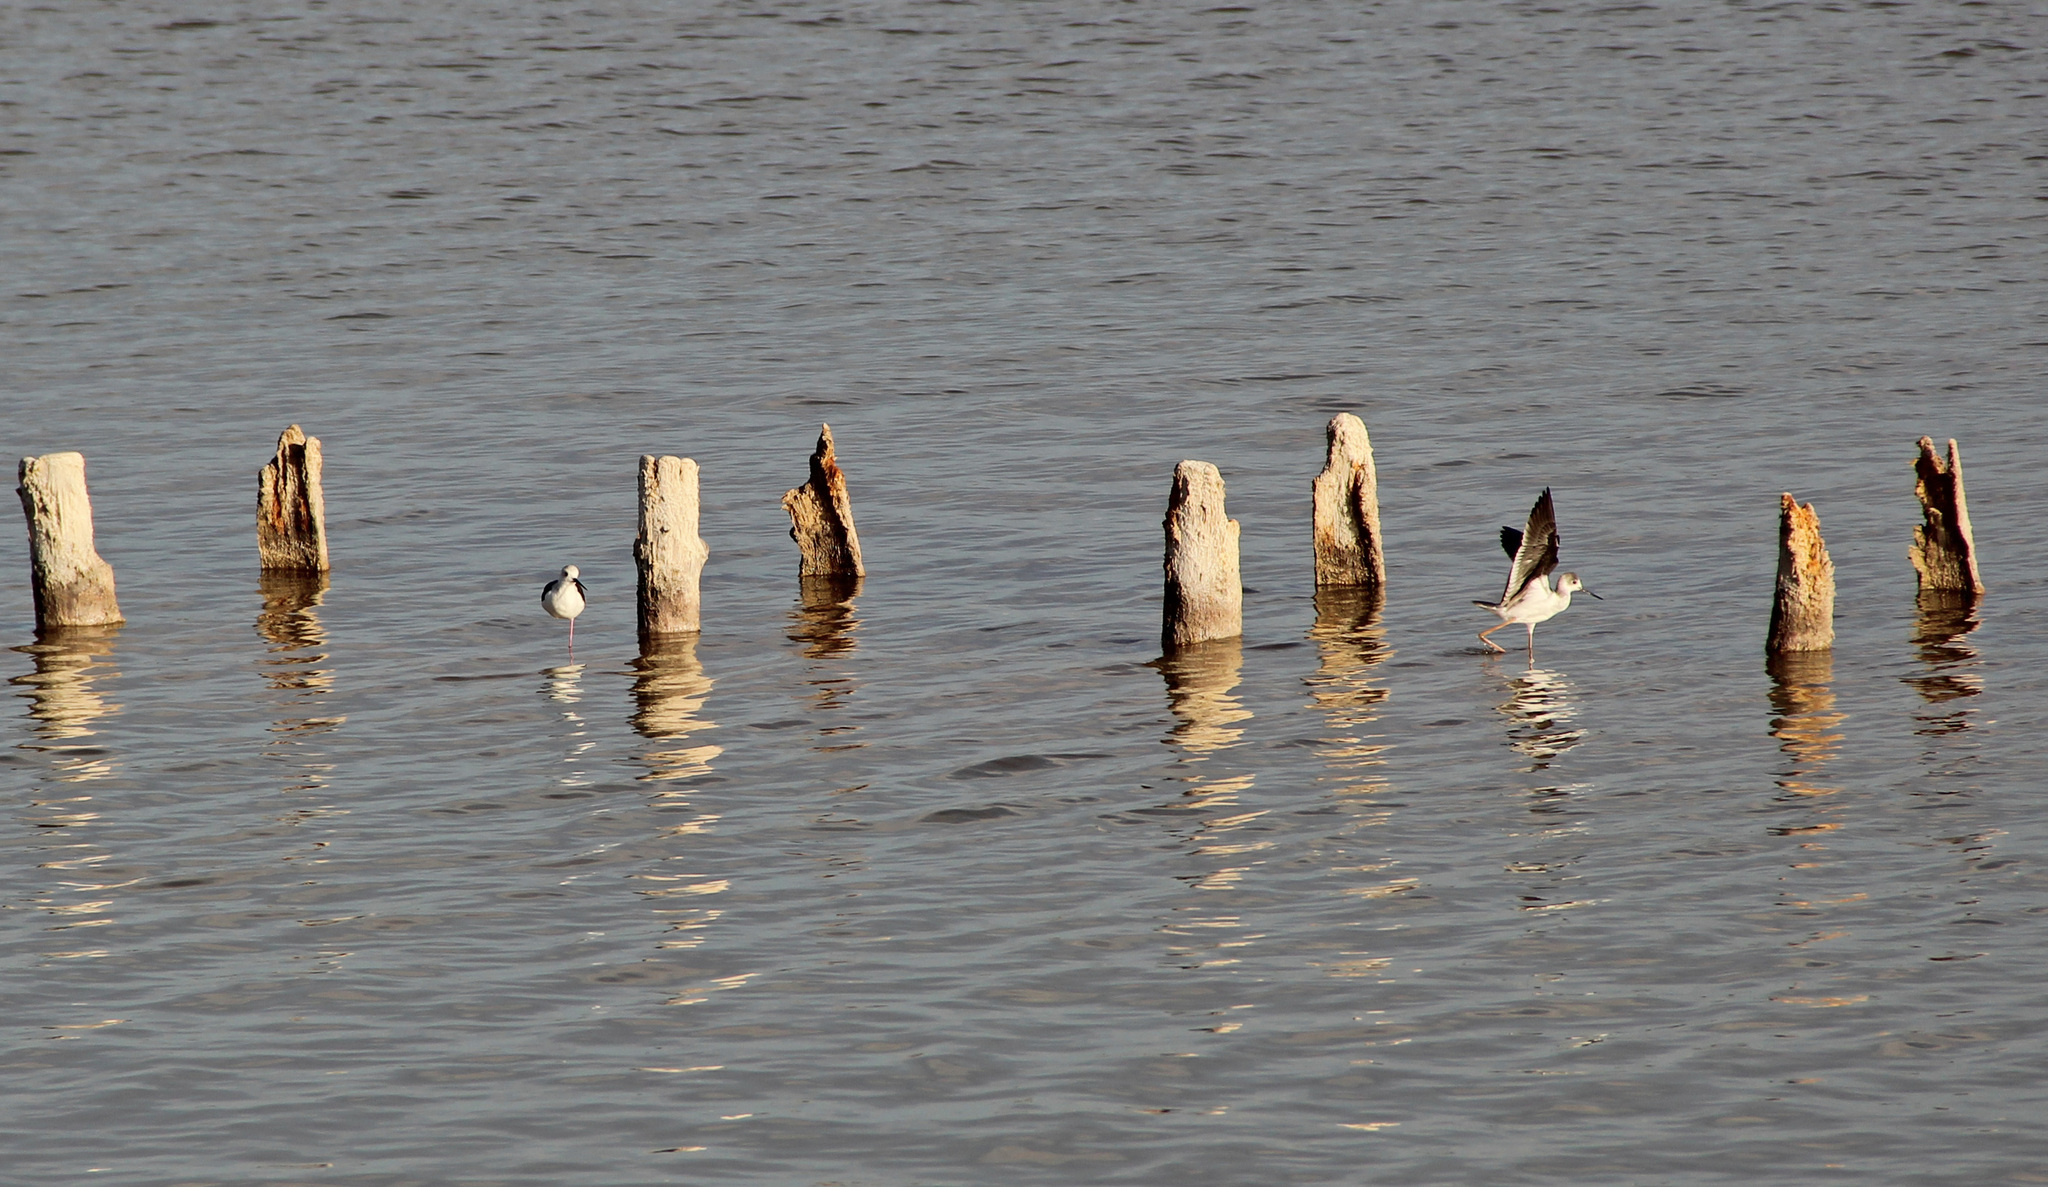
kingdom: Animalia
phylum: Chordata
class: Aves
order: Charadriiformes
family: Recurvirostridae
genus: Himantopus
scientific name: Himantopus himantopus
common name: Black-winged stilt
